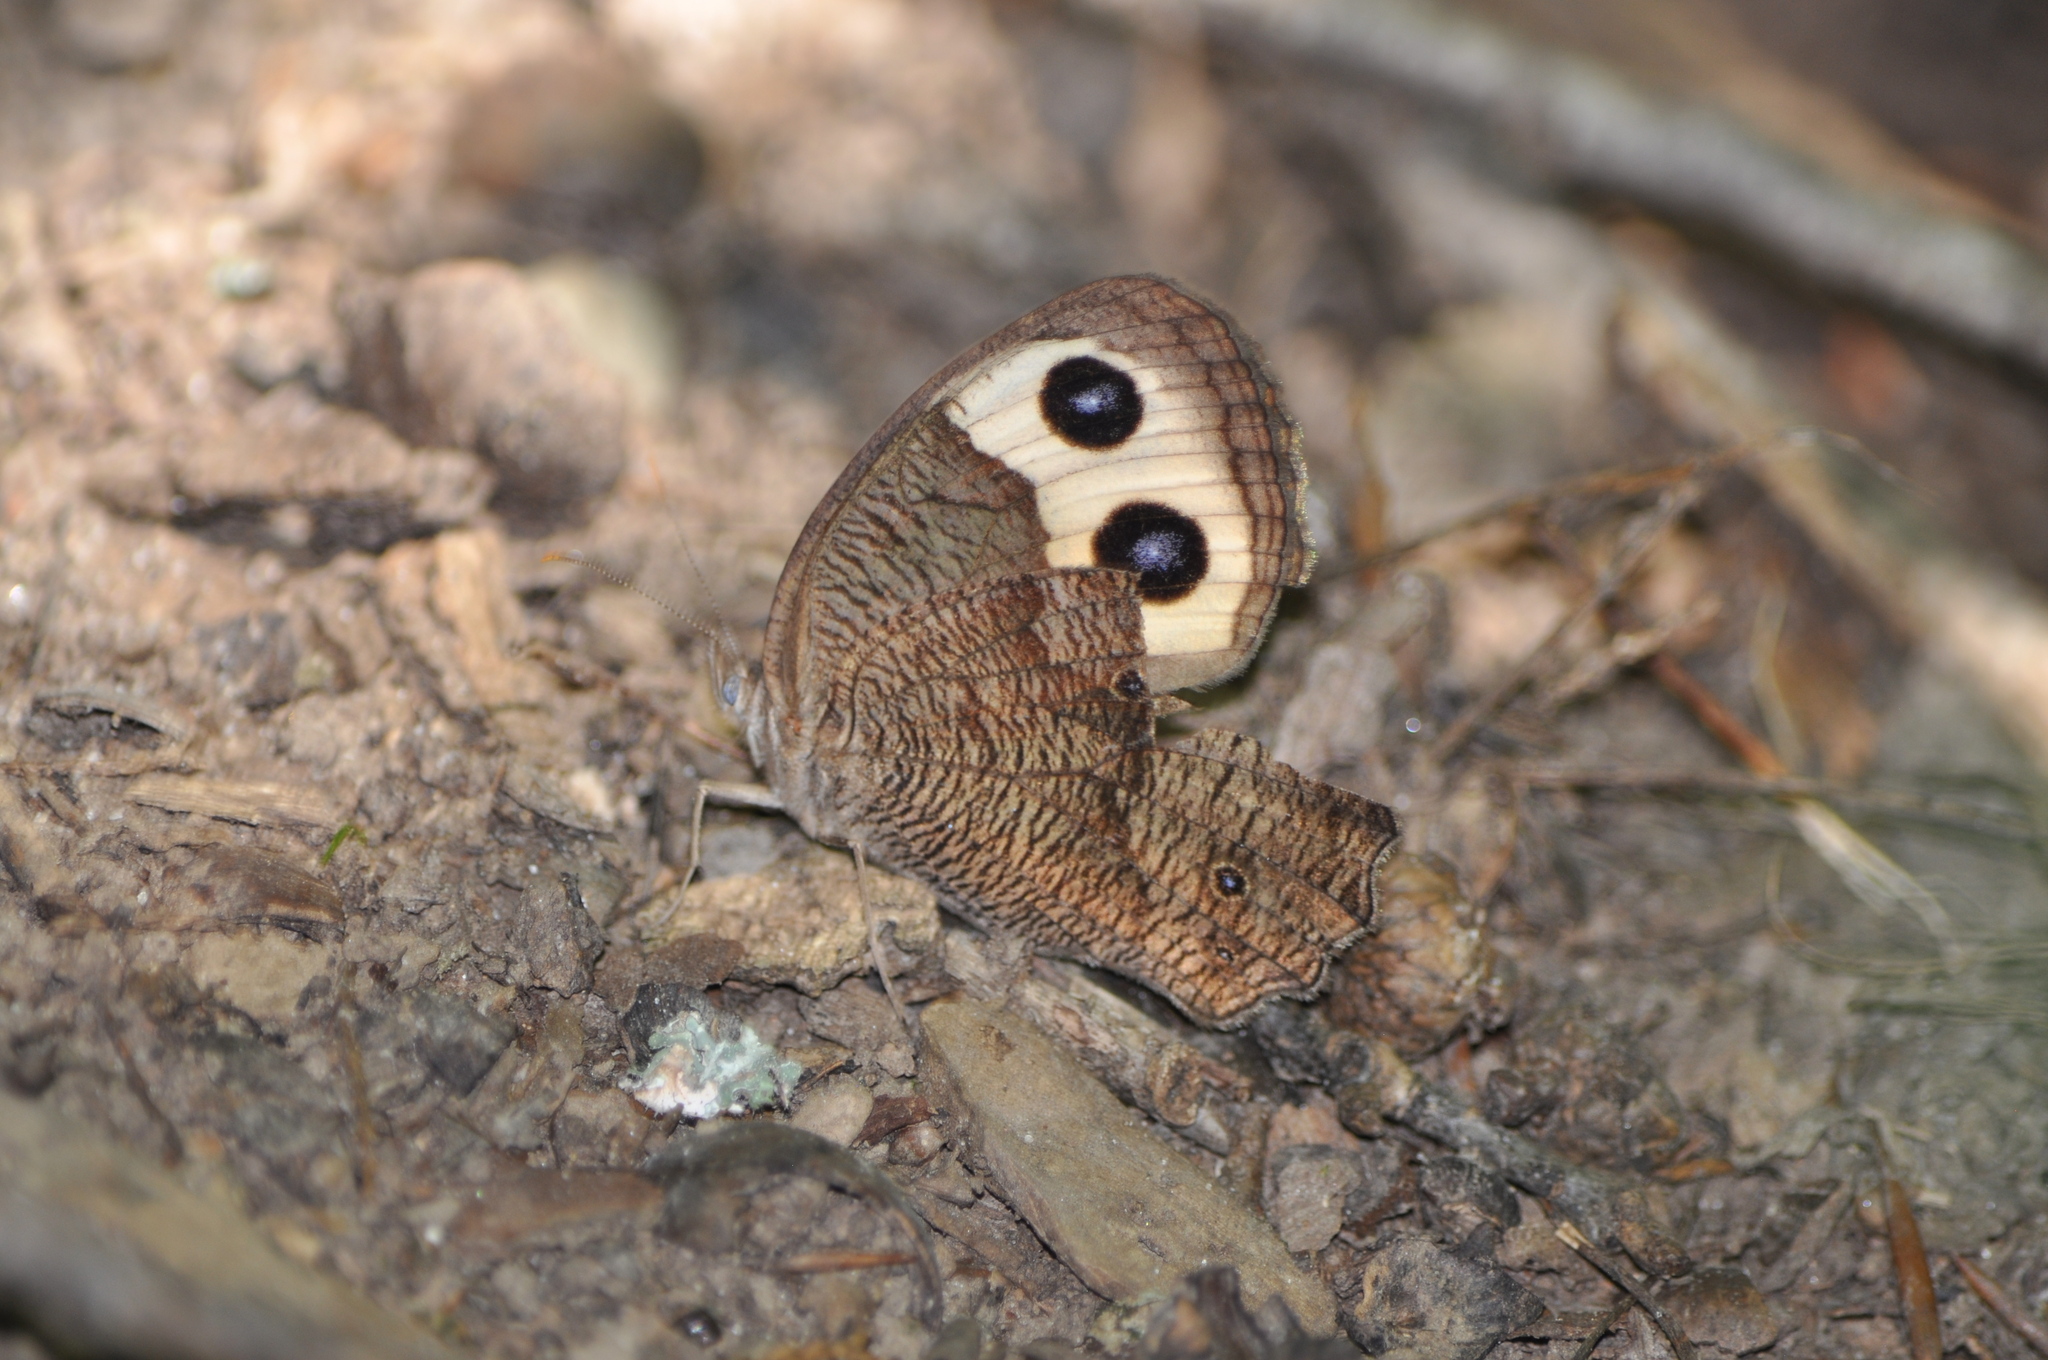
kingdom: Animalia
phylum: Arthropoda
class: Insecta
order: Lepidoptera
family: Nymphalidae
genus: Cercyonis
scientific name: Cercyonis pegala
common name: Common wood-nymph
